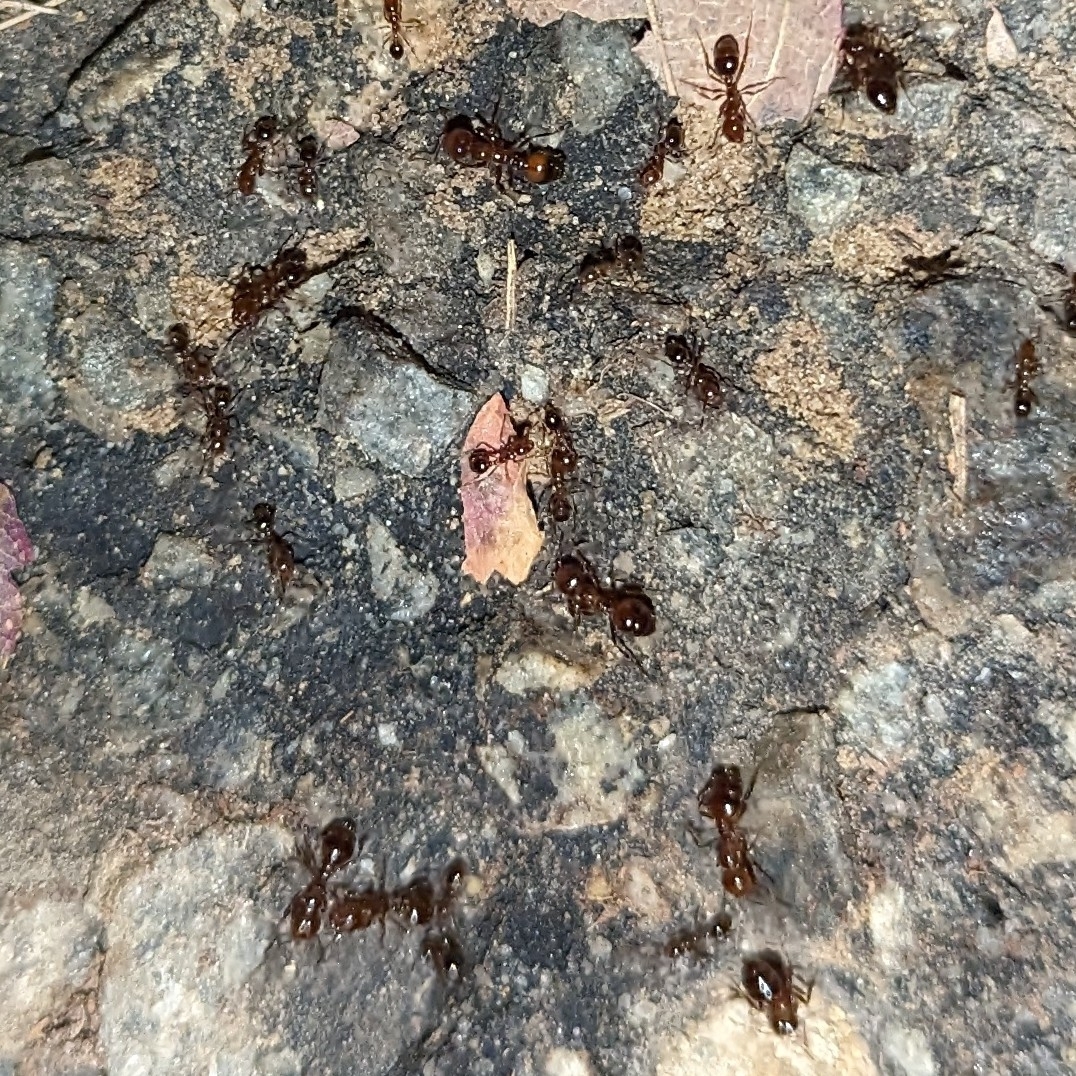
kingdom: Animalia
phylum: Arthropoda
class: Insecta
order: Hymenoptera
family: Formicidae
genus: Solenopsis
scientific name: Solenopsis invicta
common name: Red imported fire ant
